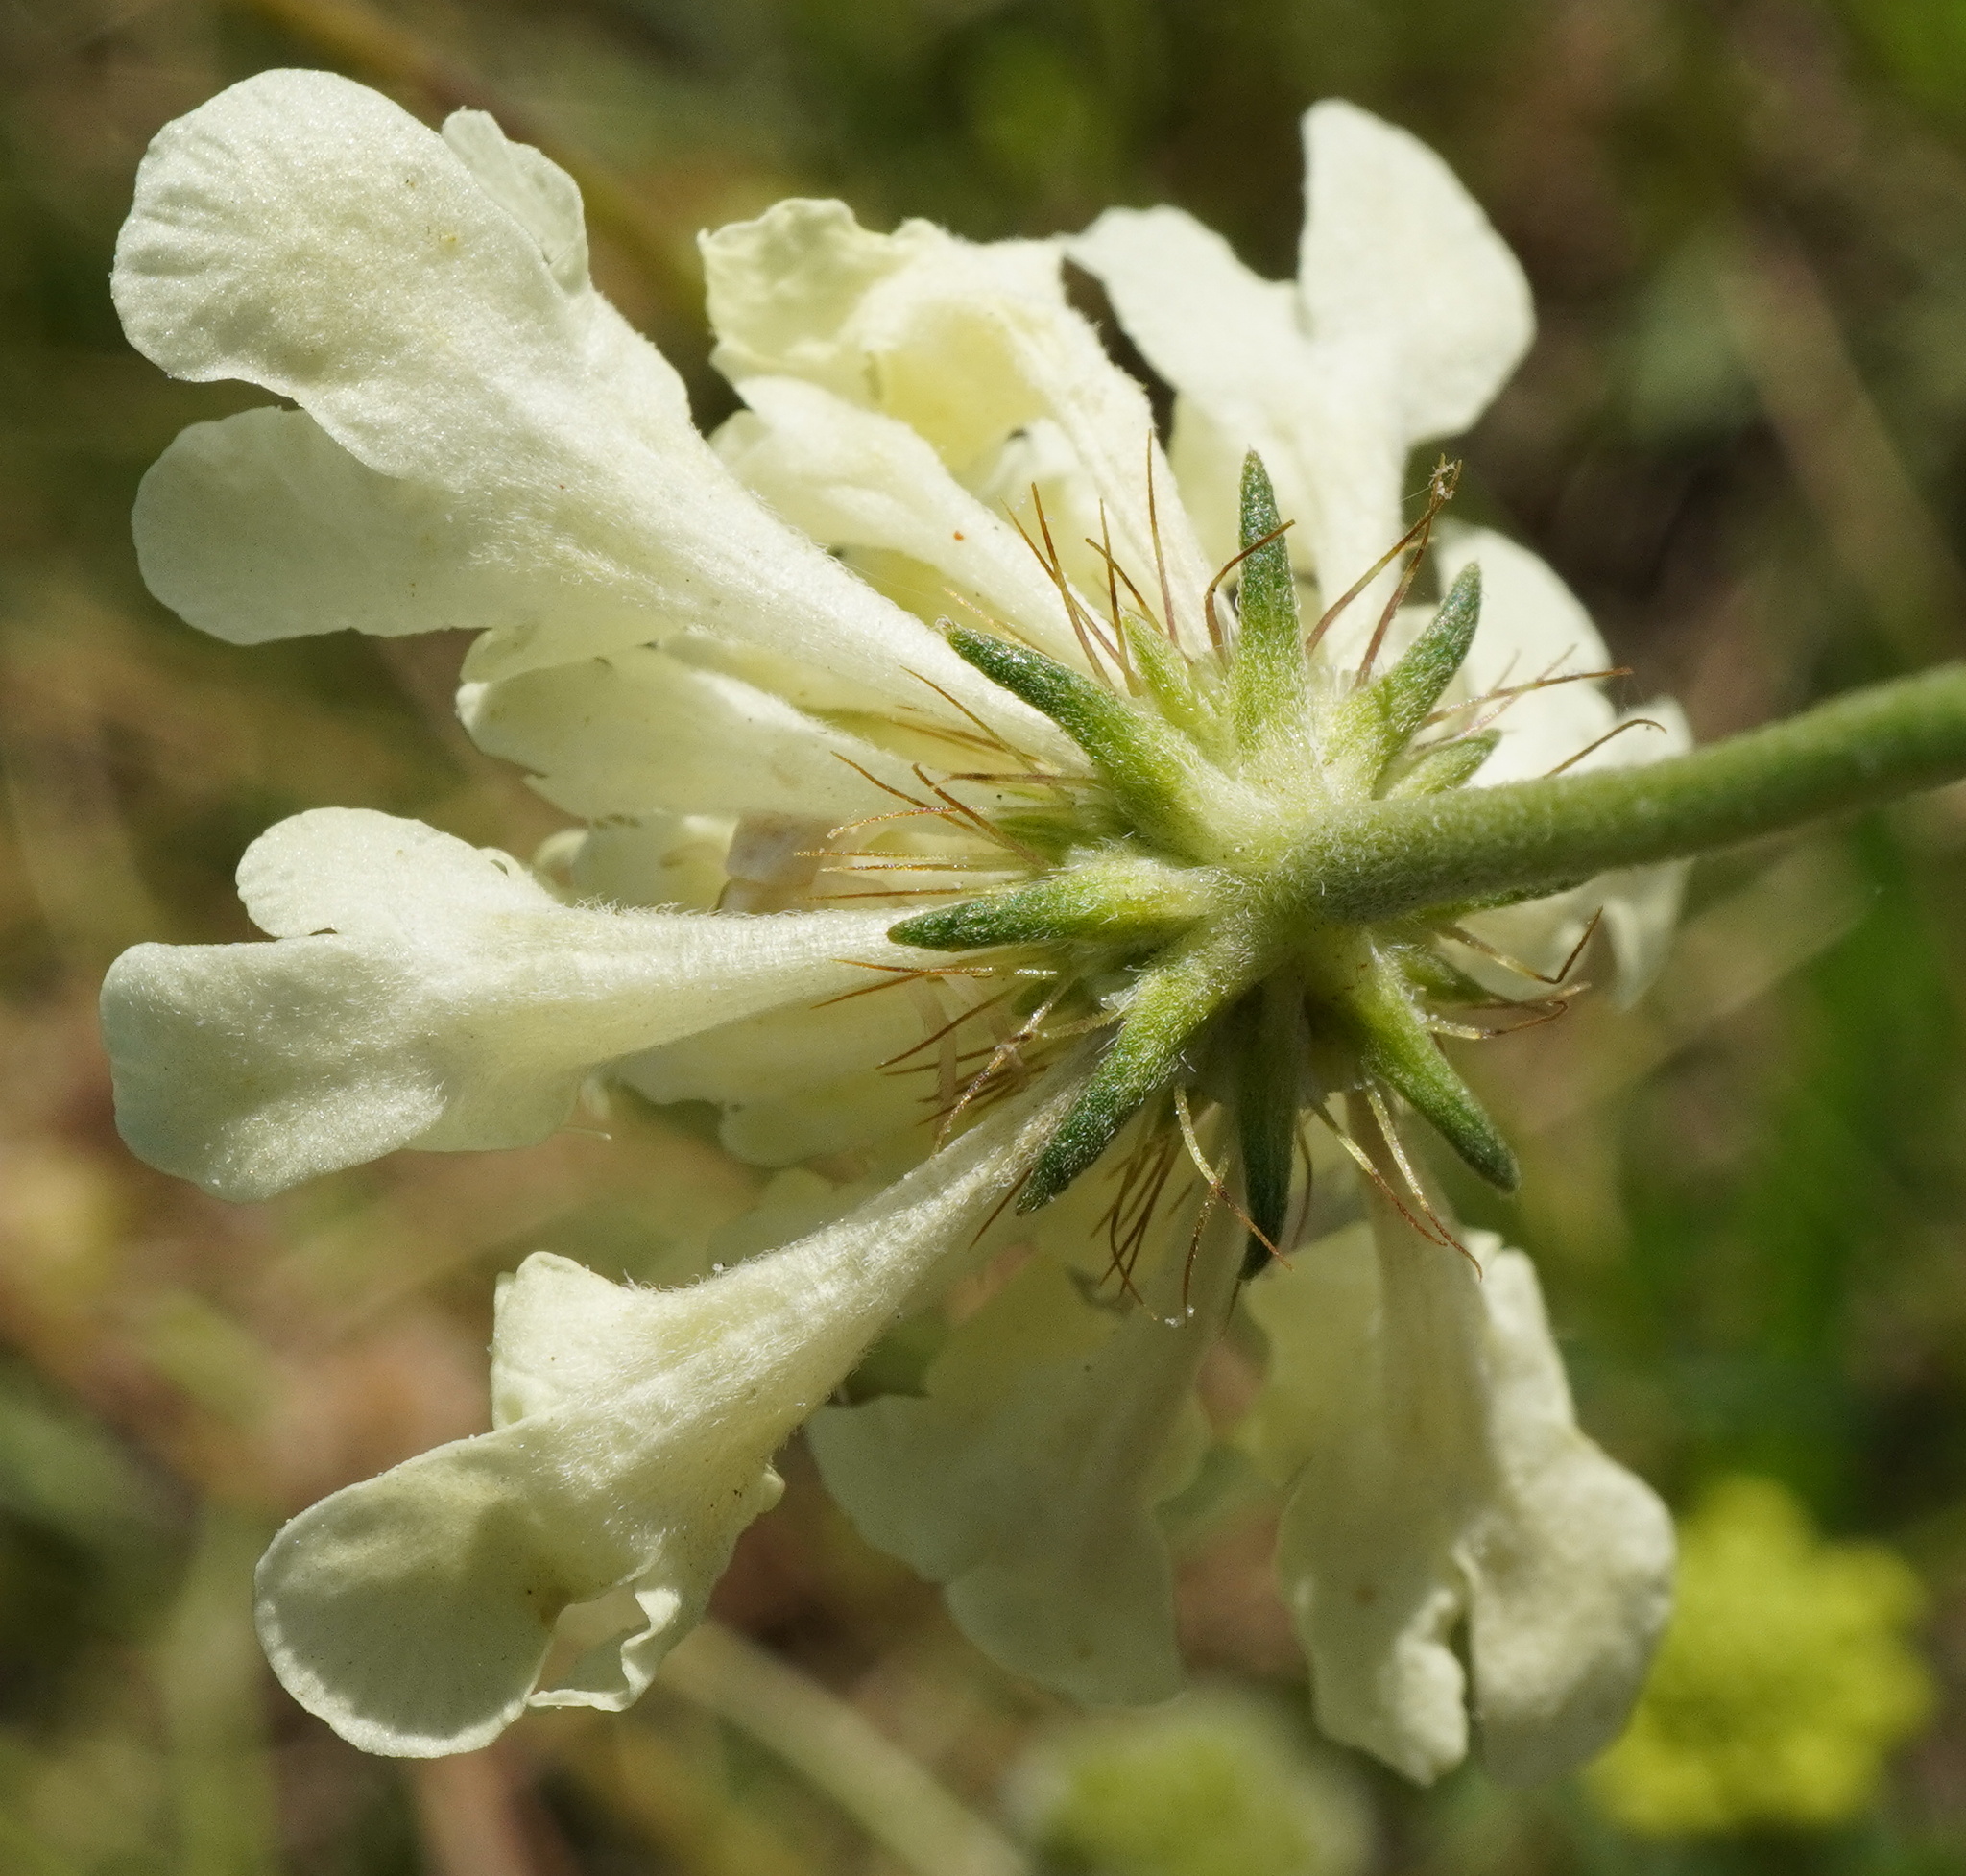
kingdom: Plantae
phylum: Tracheophyta
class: Magnoliopsida
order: Dipsacales
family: Caprifoliaceae
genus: Scabiosa
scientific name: Scabiosa ochroleuca
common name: Cream pincushions
